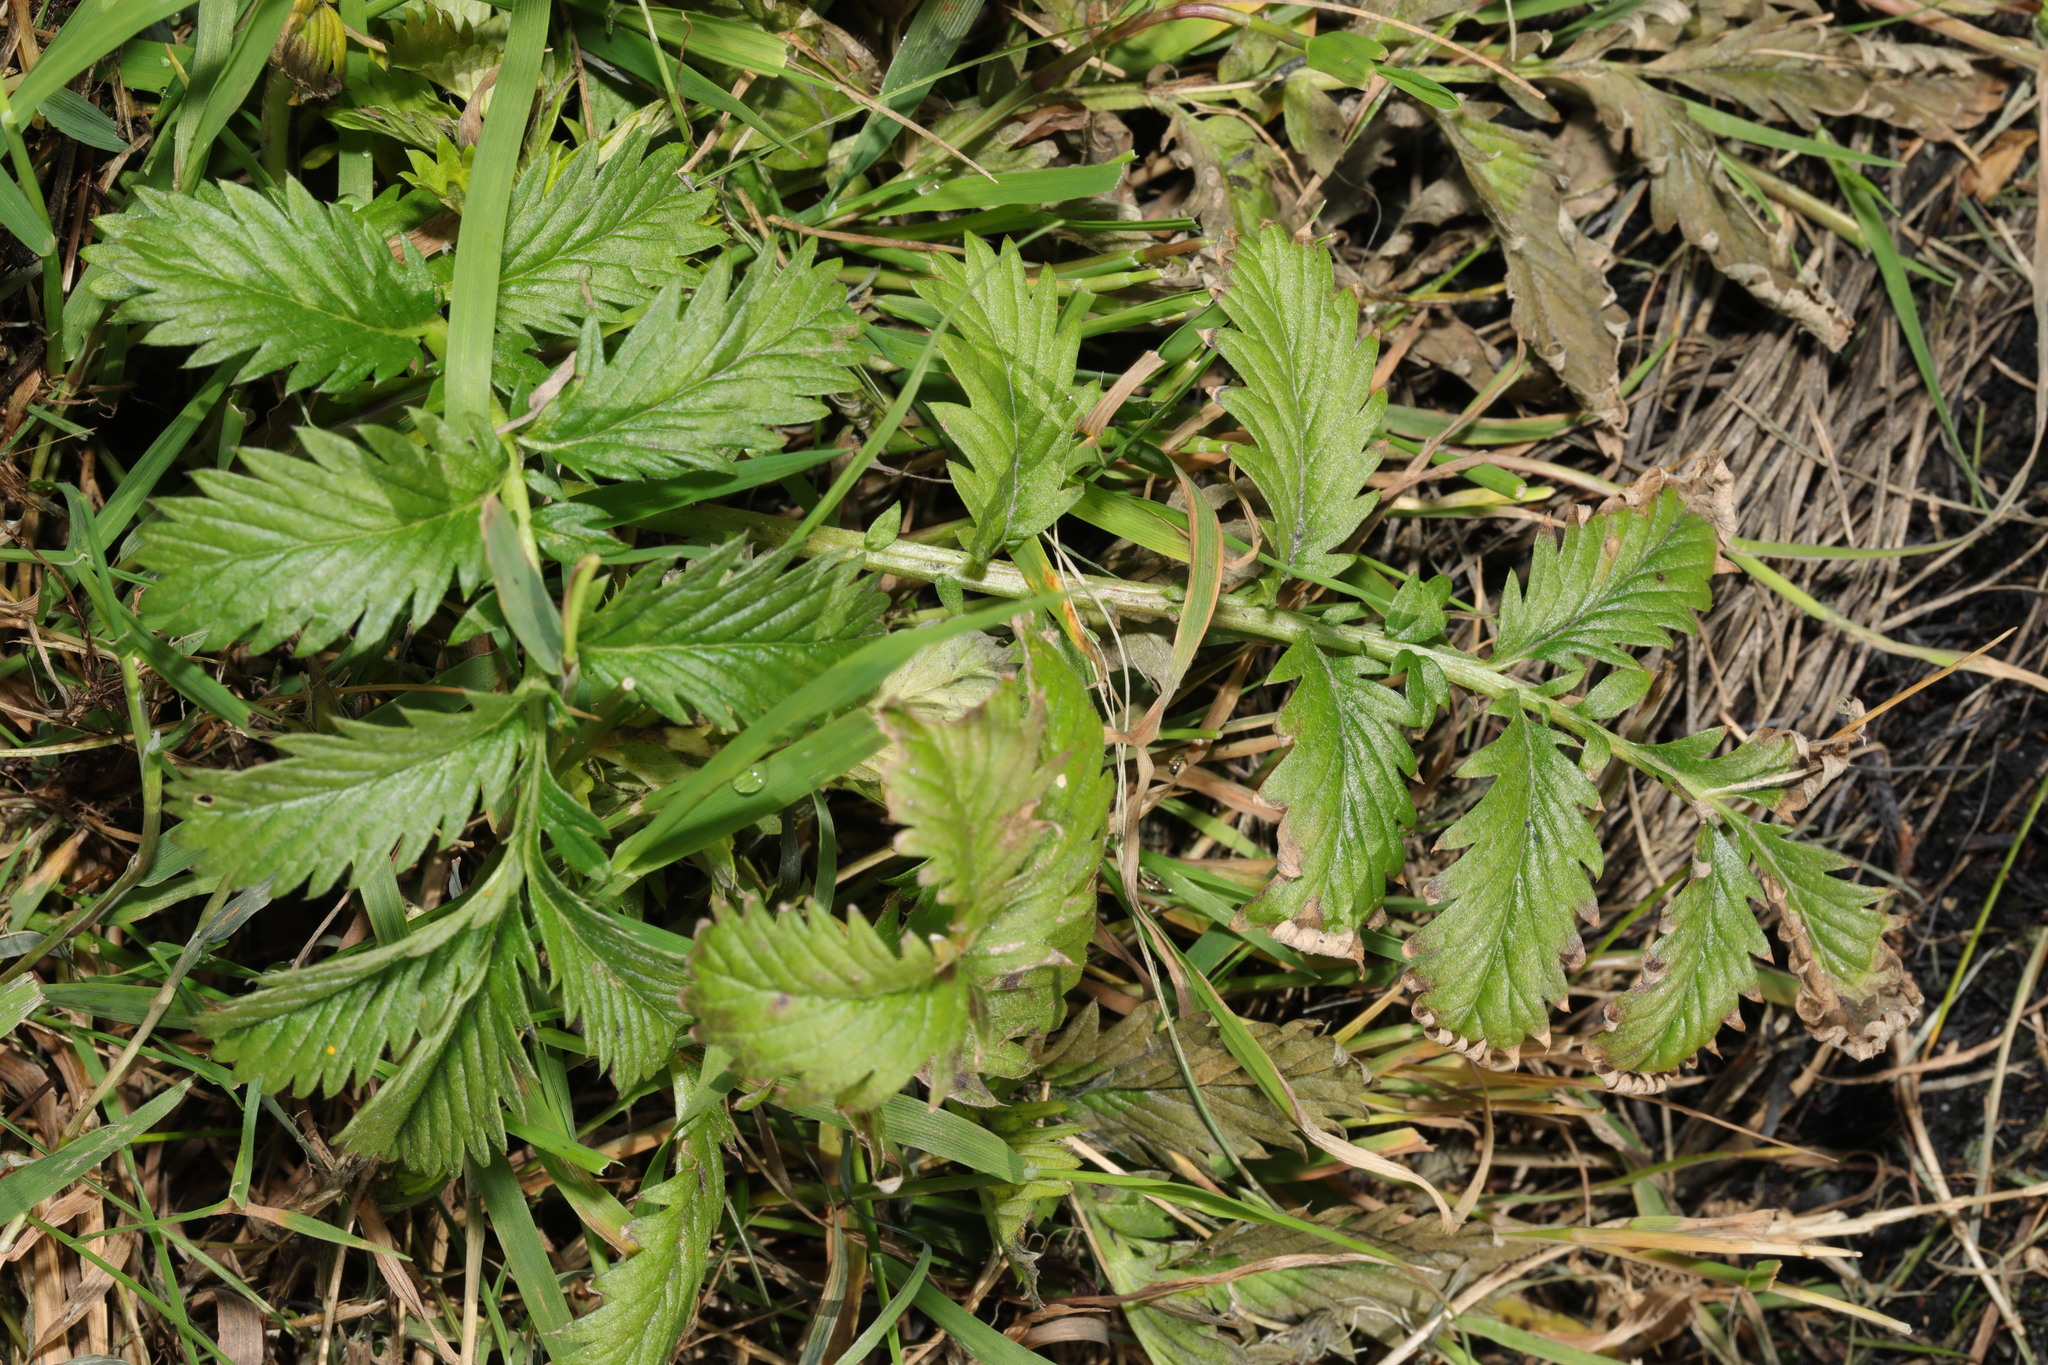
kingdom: Plantae
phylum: Tracheophyta
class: Magnoliopsida
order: Rosales
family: Rosaceae
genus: Argentina
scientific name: Argentina anserina
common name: Common silverweed
